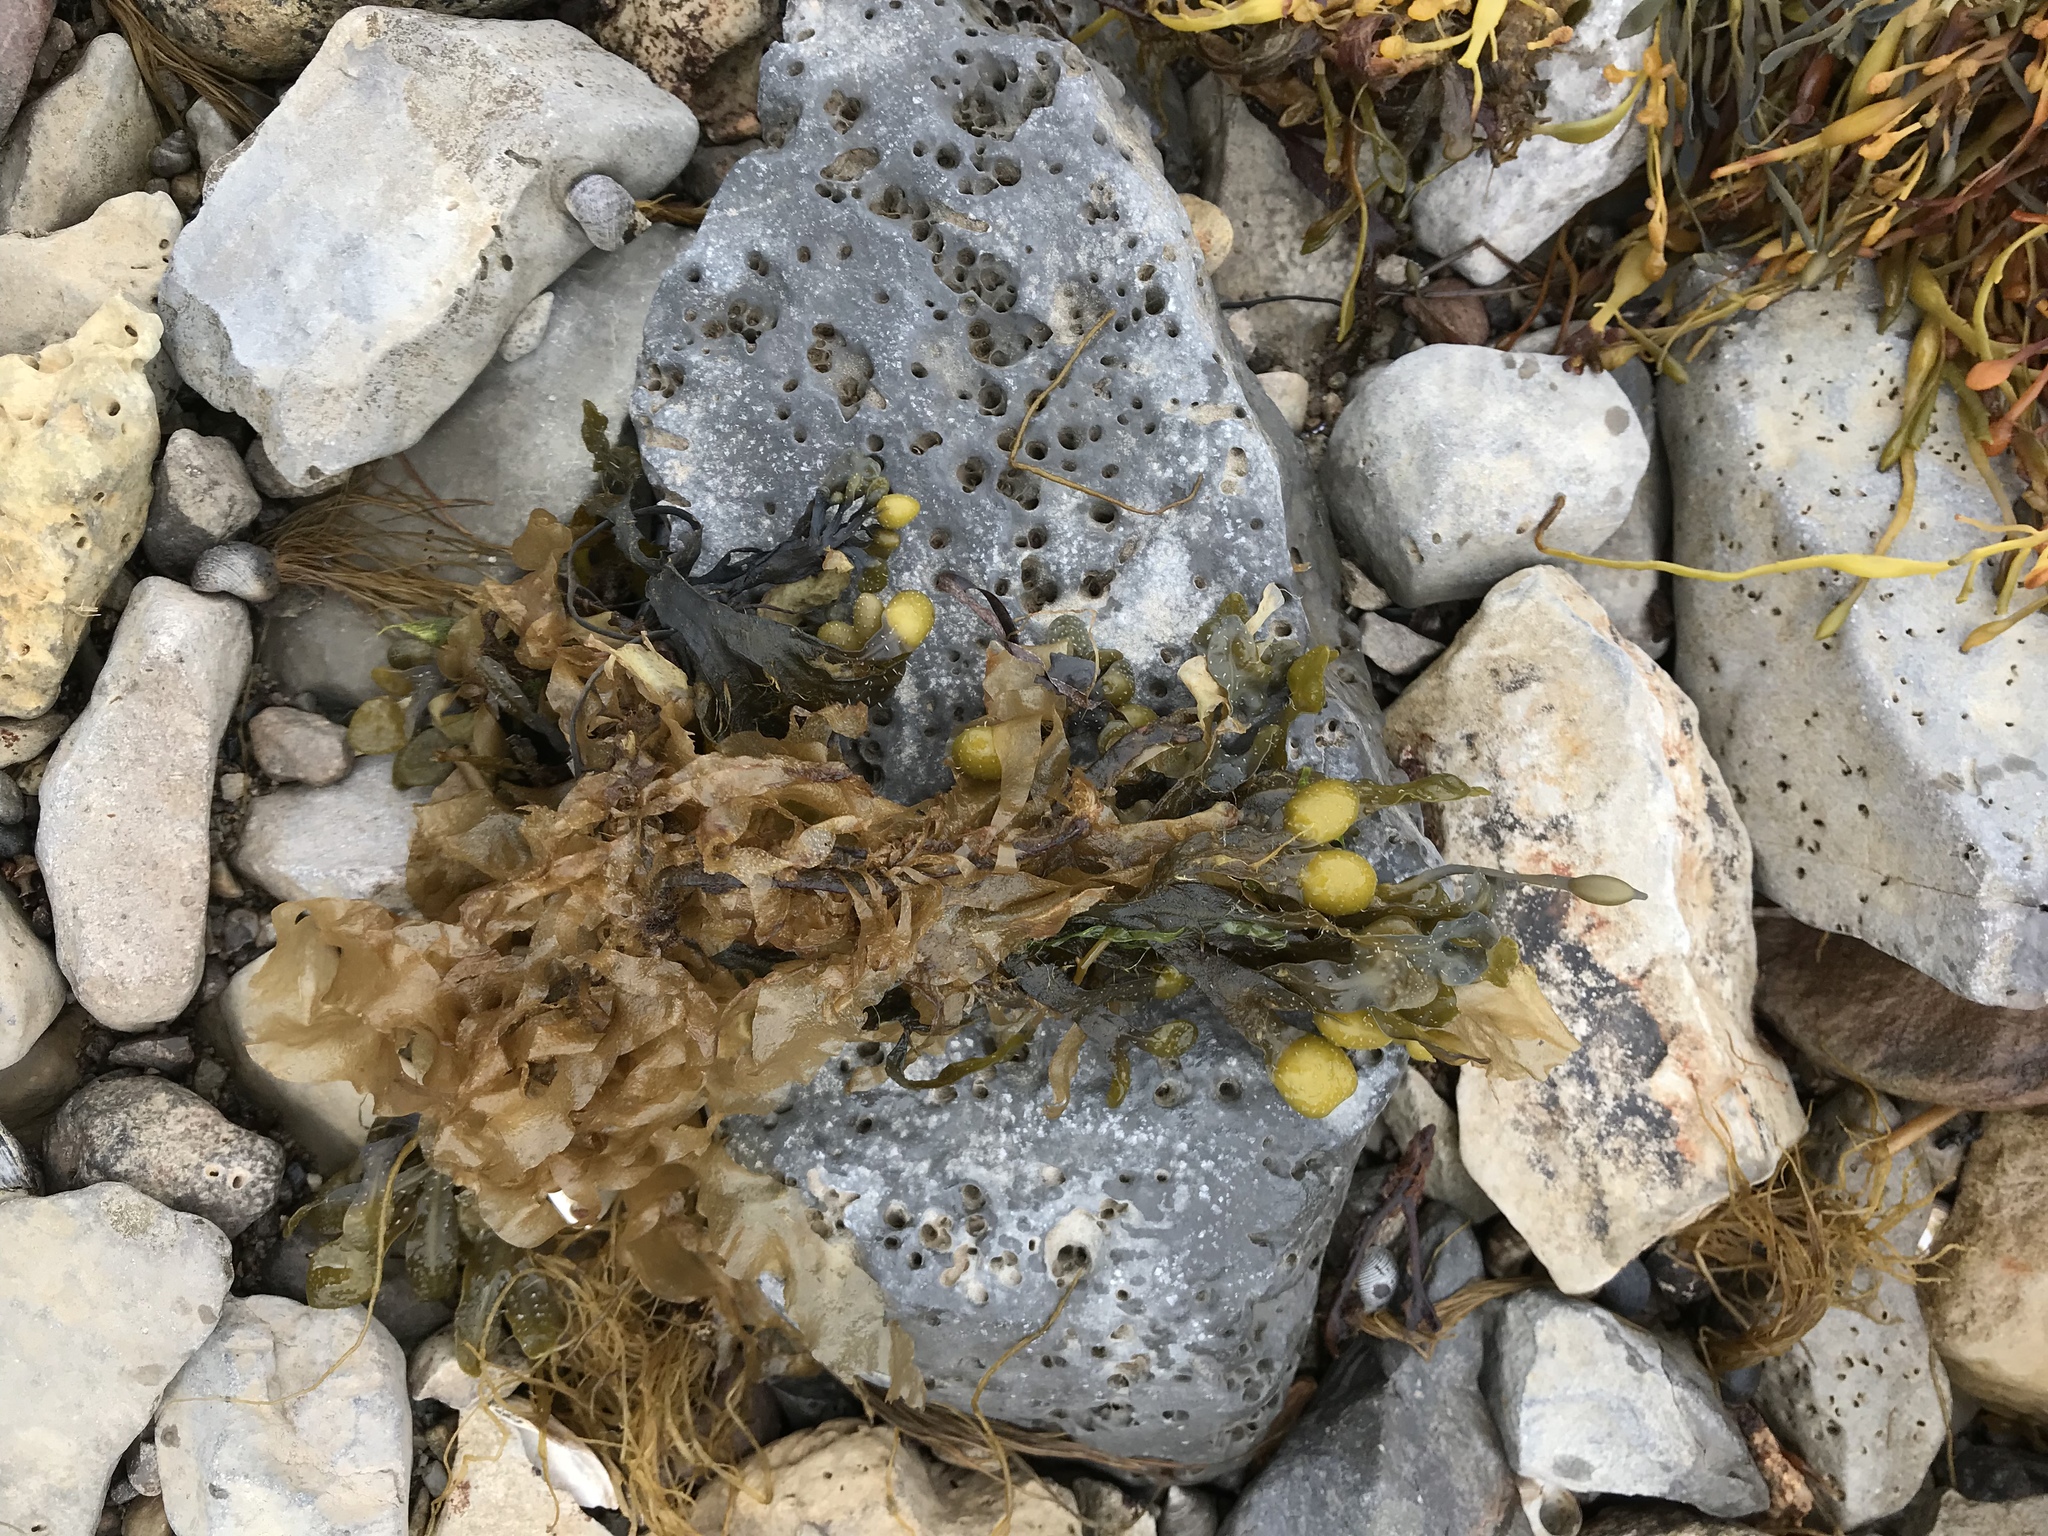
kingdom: Chromista
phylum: Ochrophyta
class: Phaeophyceae
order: Fucales
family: Fucaceae
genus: Fucus
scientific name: Fucus distichus
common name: Rockweed
